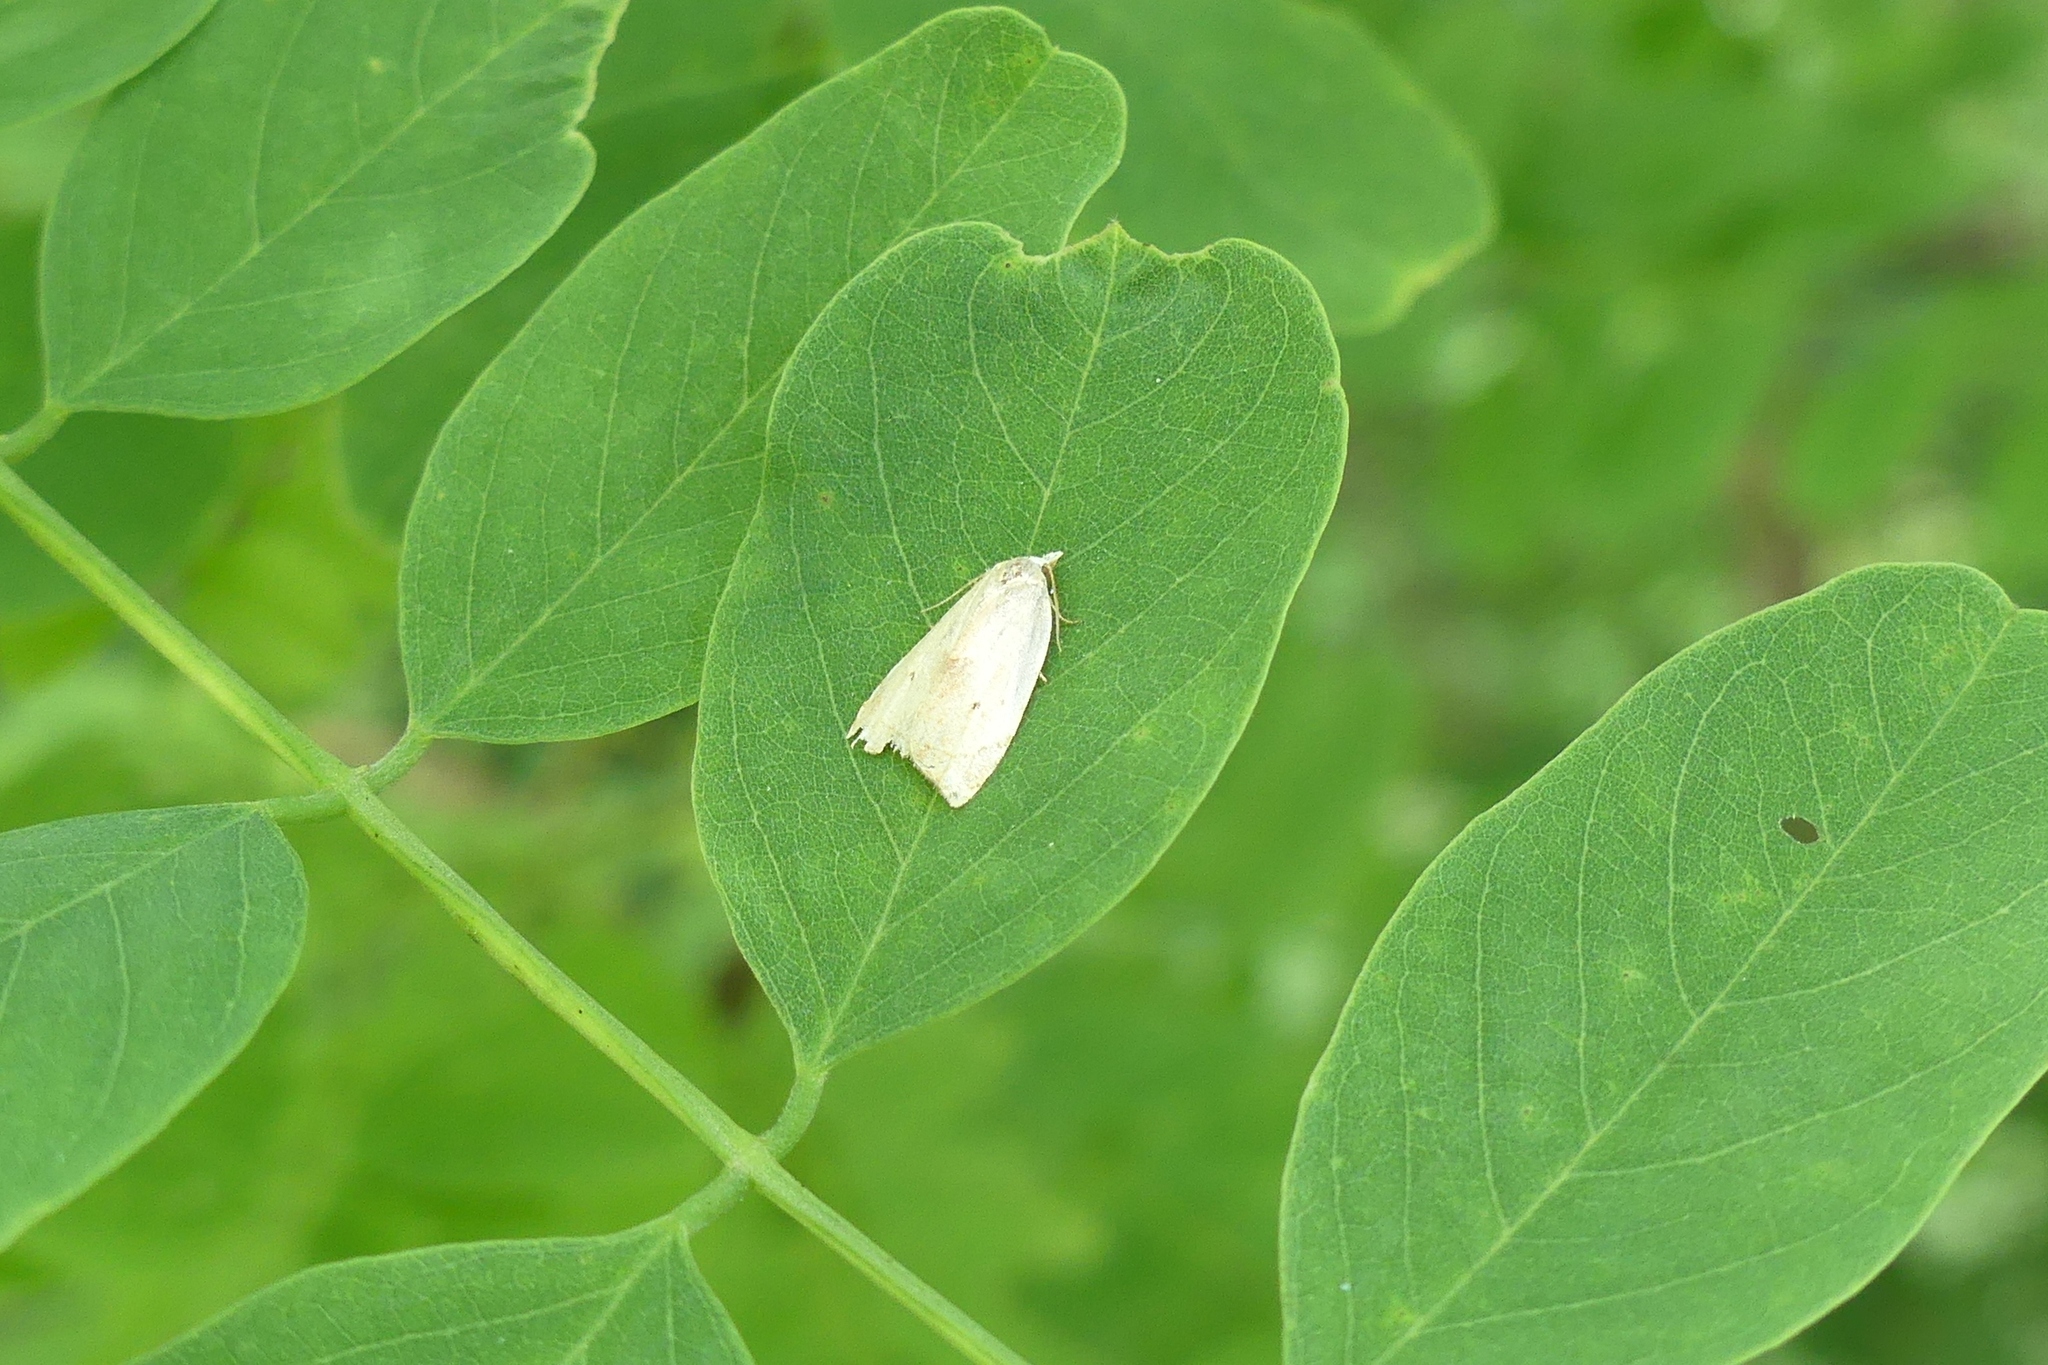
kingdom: Animalia
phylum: Arthropoda
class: Insecta
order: Lepidoptera
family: Tortricidae
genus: Coelostathma
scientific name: Coelostathma discopunctana
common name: Batman moth
